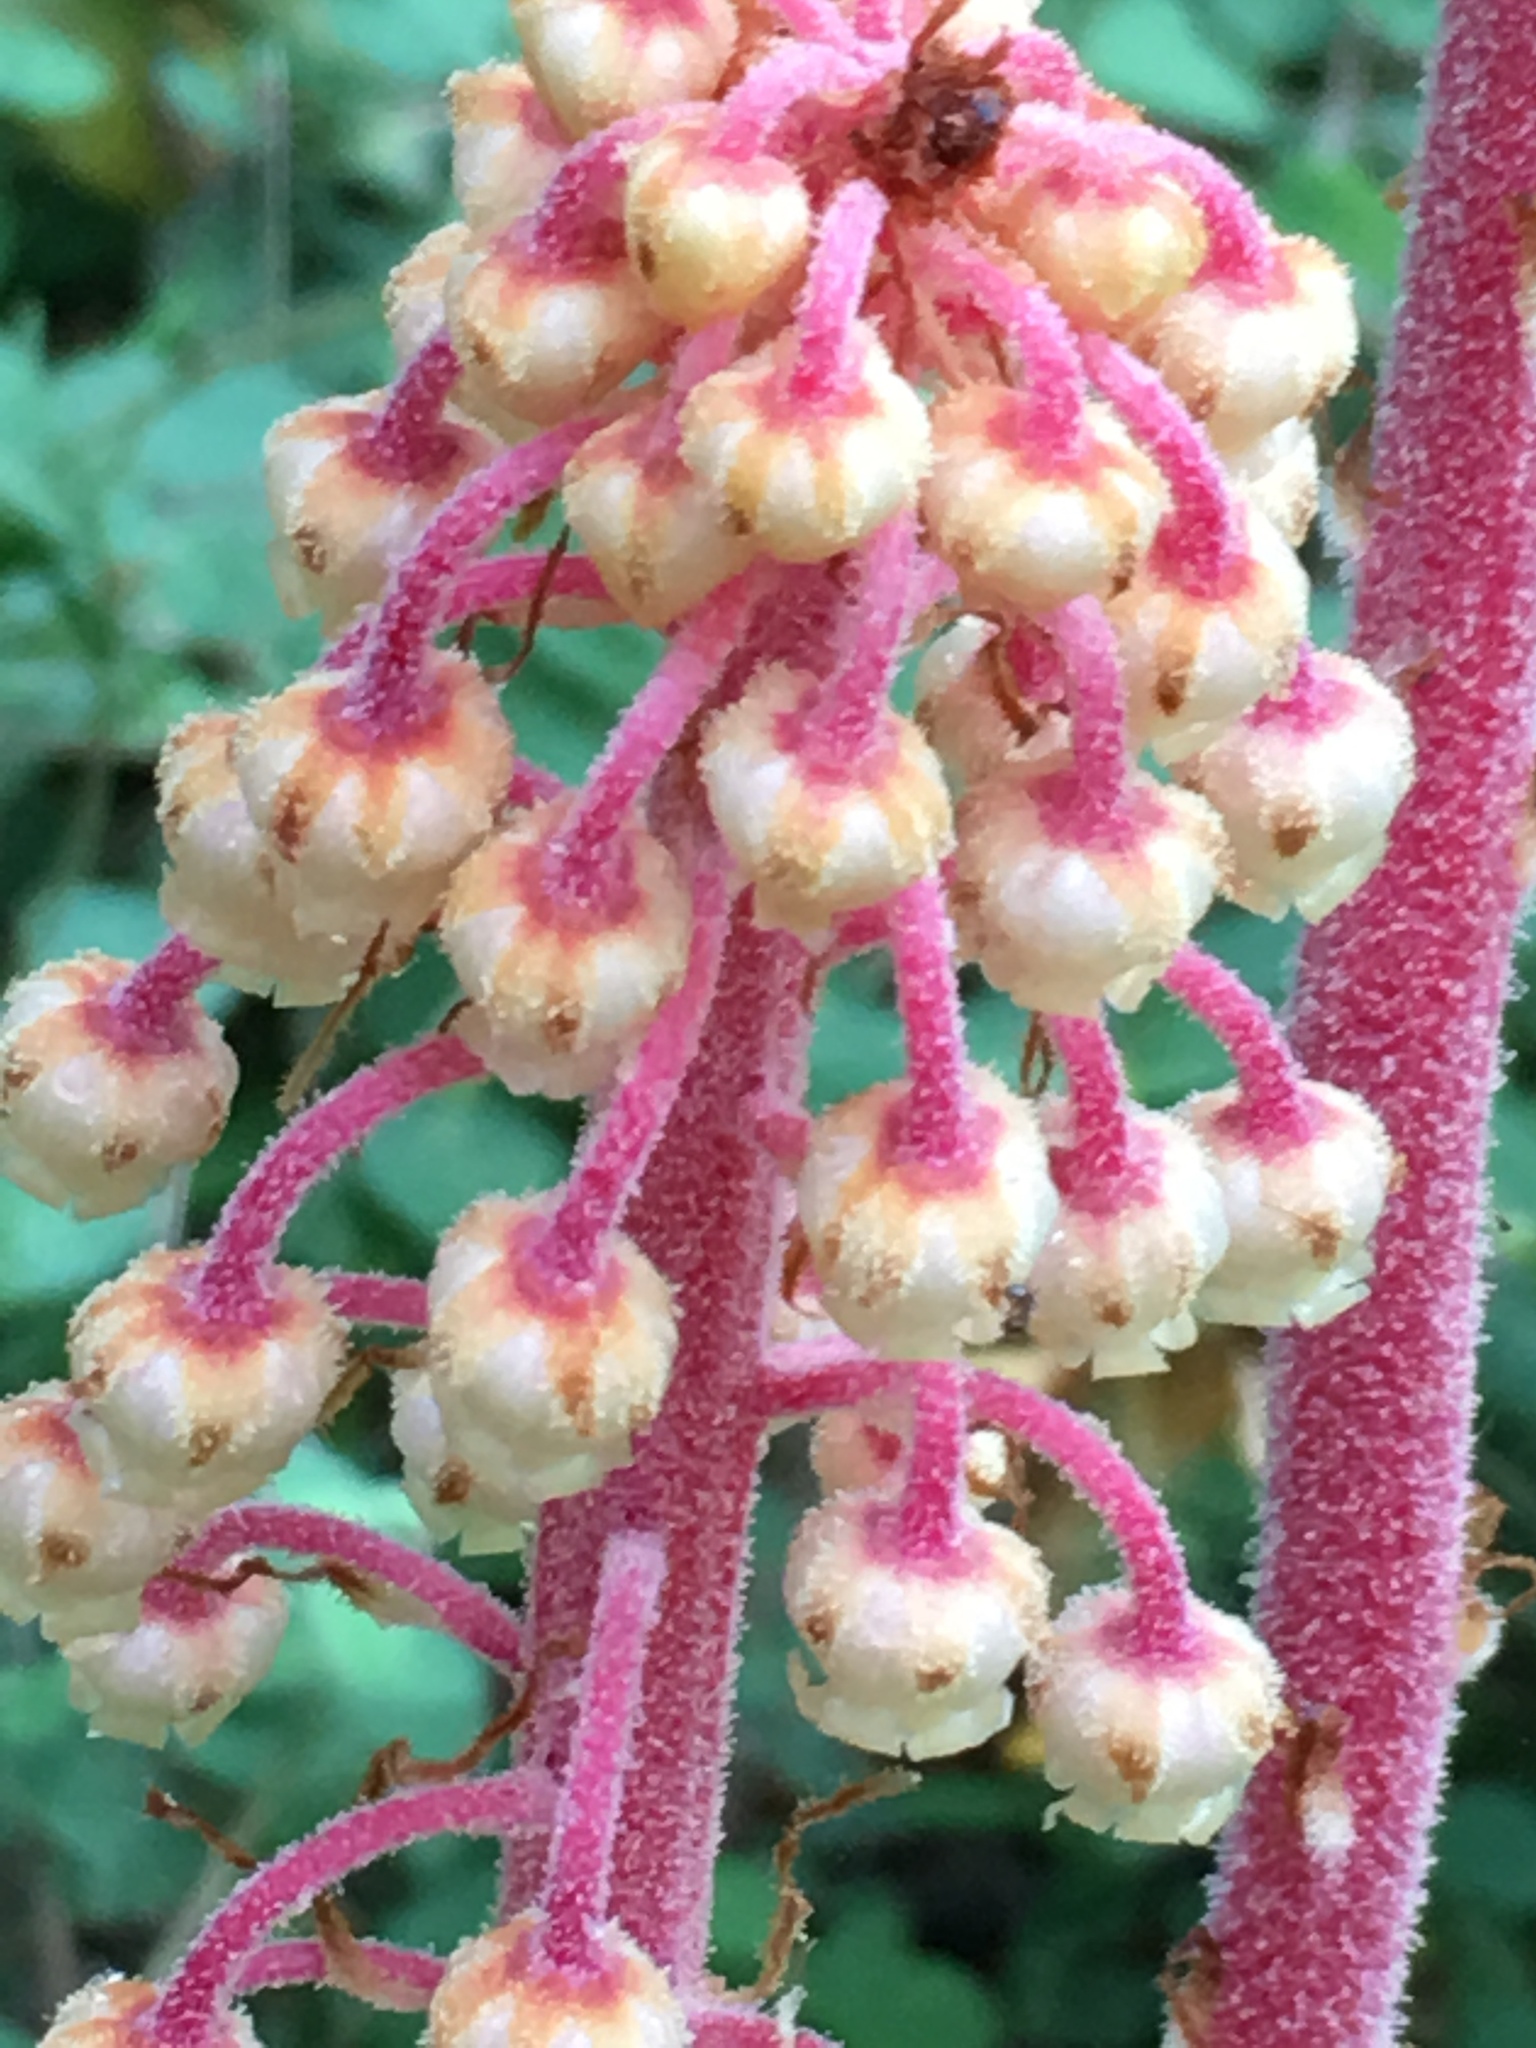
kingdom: Plantae
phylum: Tracheophyta
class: Magnoliopsida
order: Ericales
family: Ericaceae
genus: Pterospora
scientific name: Pterospora andromedea
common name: Giant bird's-nest
